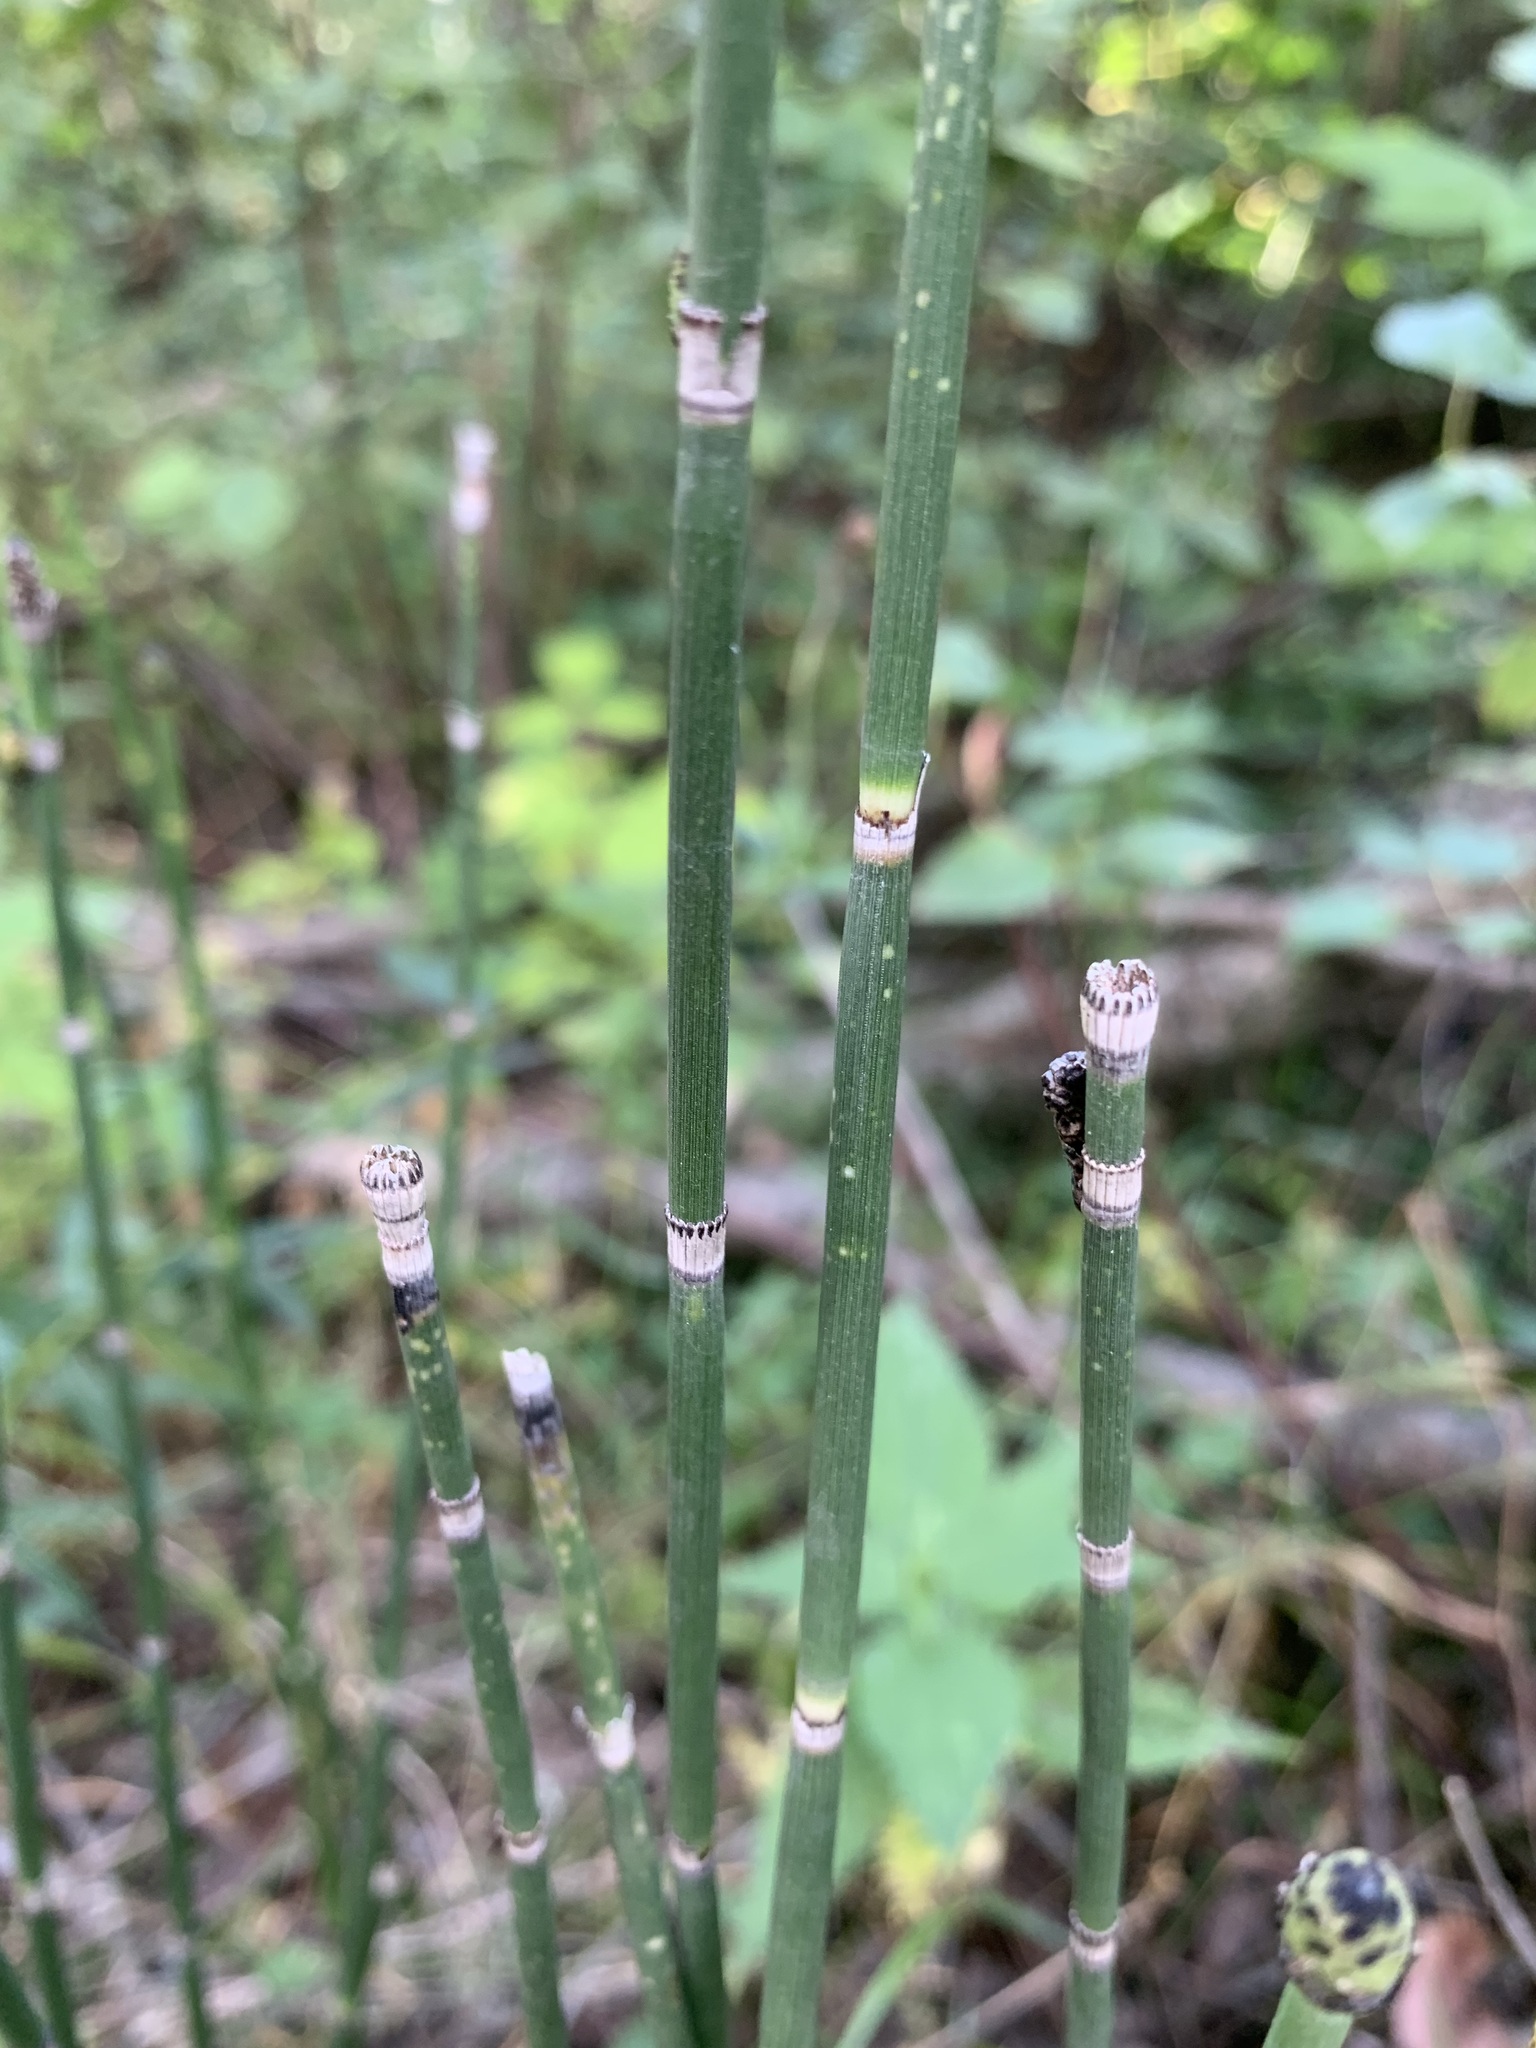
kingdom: Plantae
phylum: Tracheophyta
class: Polypodiopsida
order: Equisetales
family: Equisetaceae
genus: Equisetum
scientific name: Equisetum hyemale
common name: Rough horsetail
